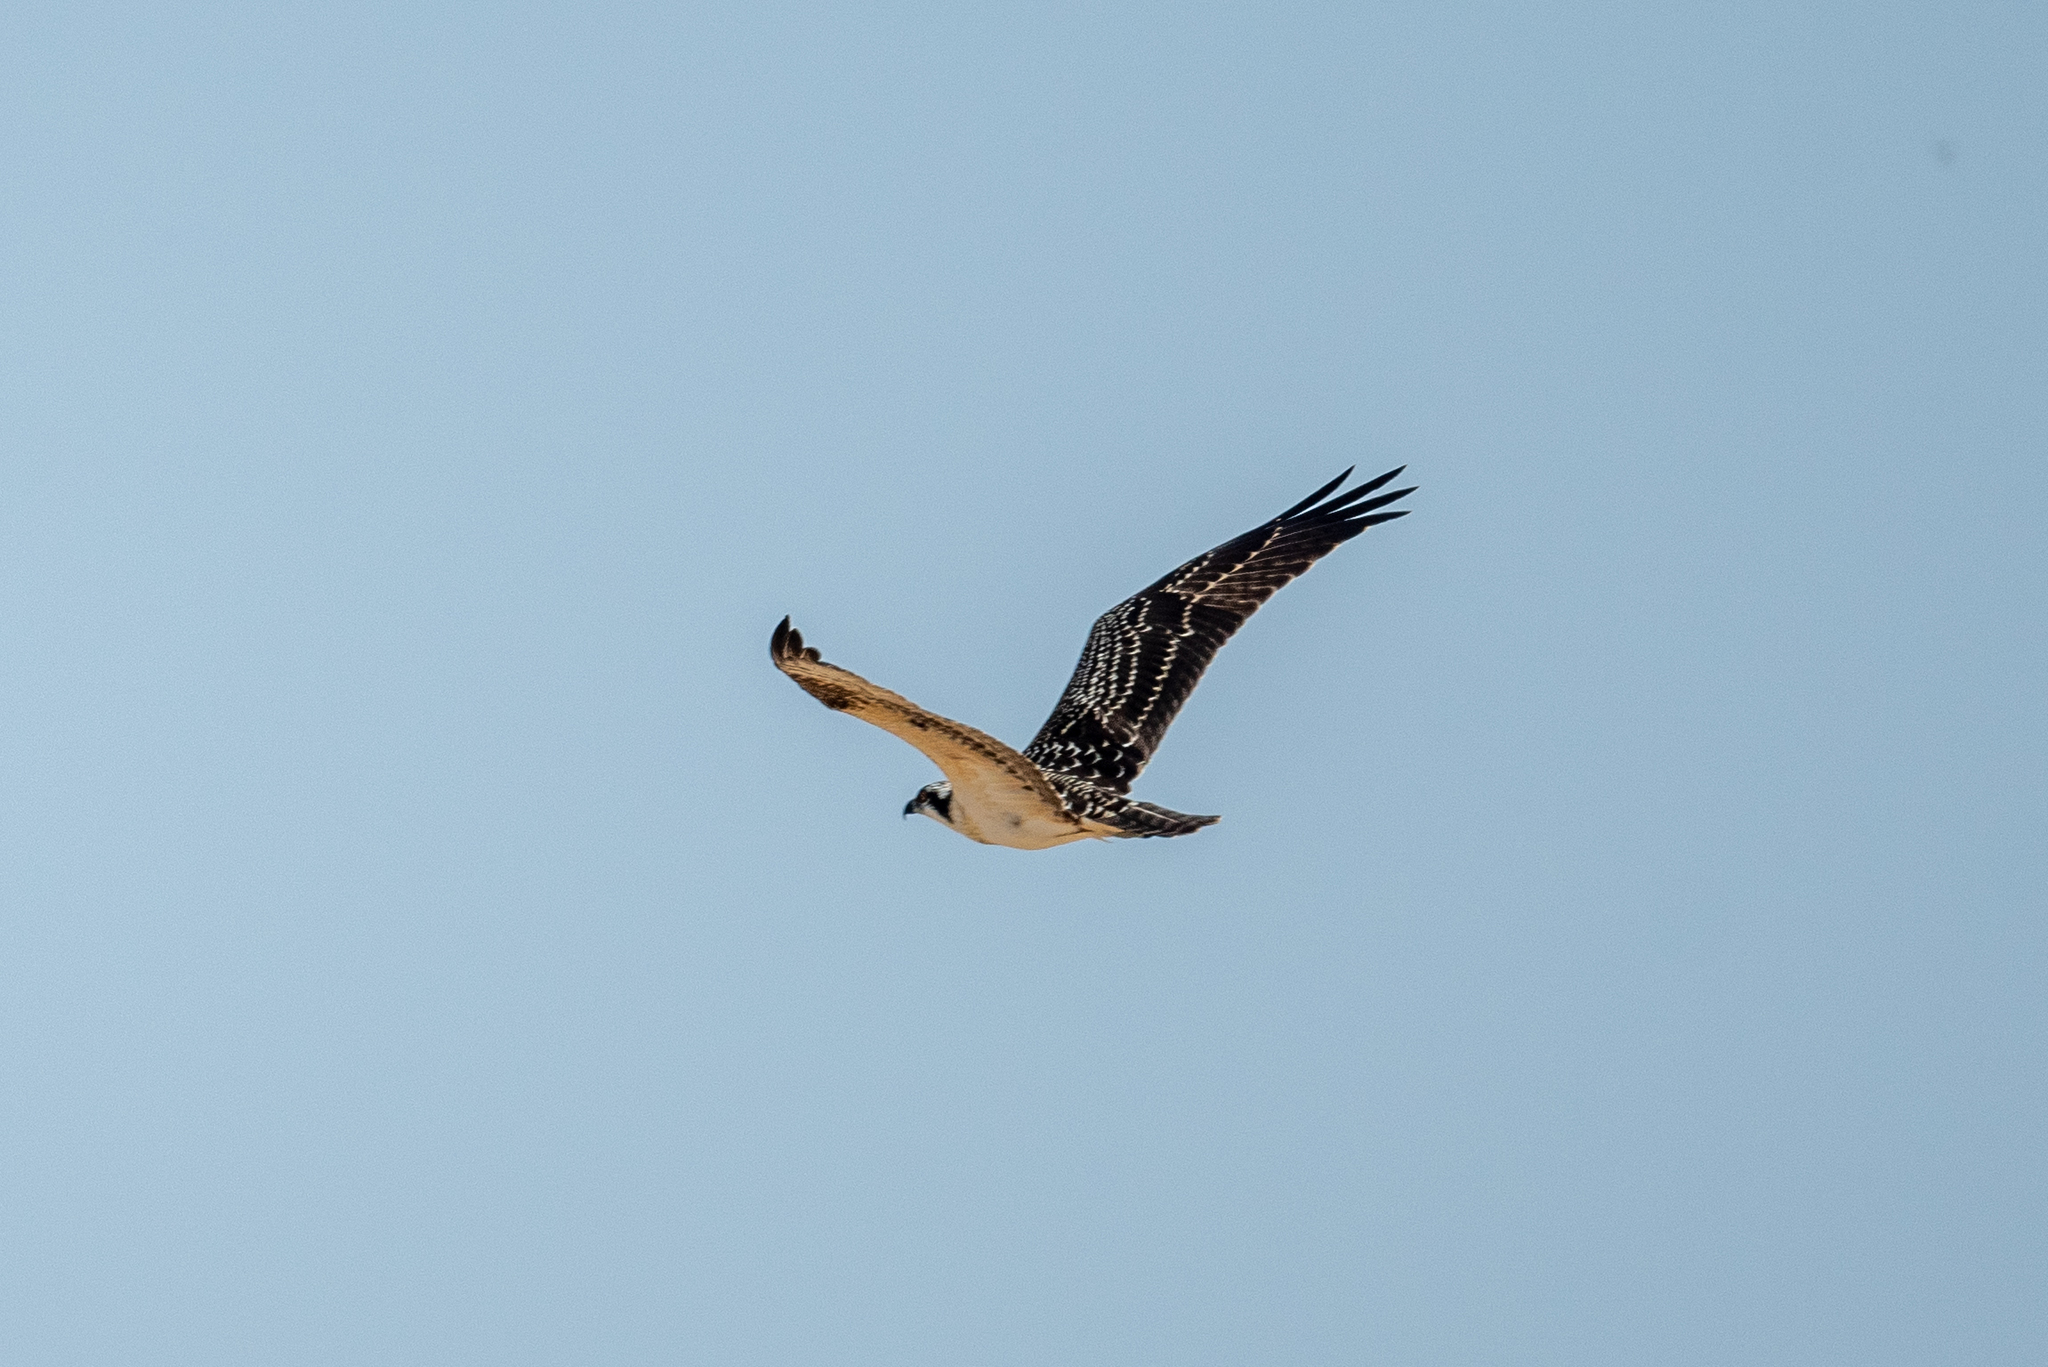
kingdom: Animalia
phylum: Chordata
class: Aves
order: Accipitriformes
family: Pandionidae
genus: Pandion
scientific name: Pandion haliaetus
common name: Osprey
